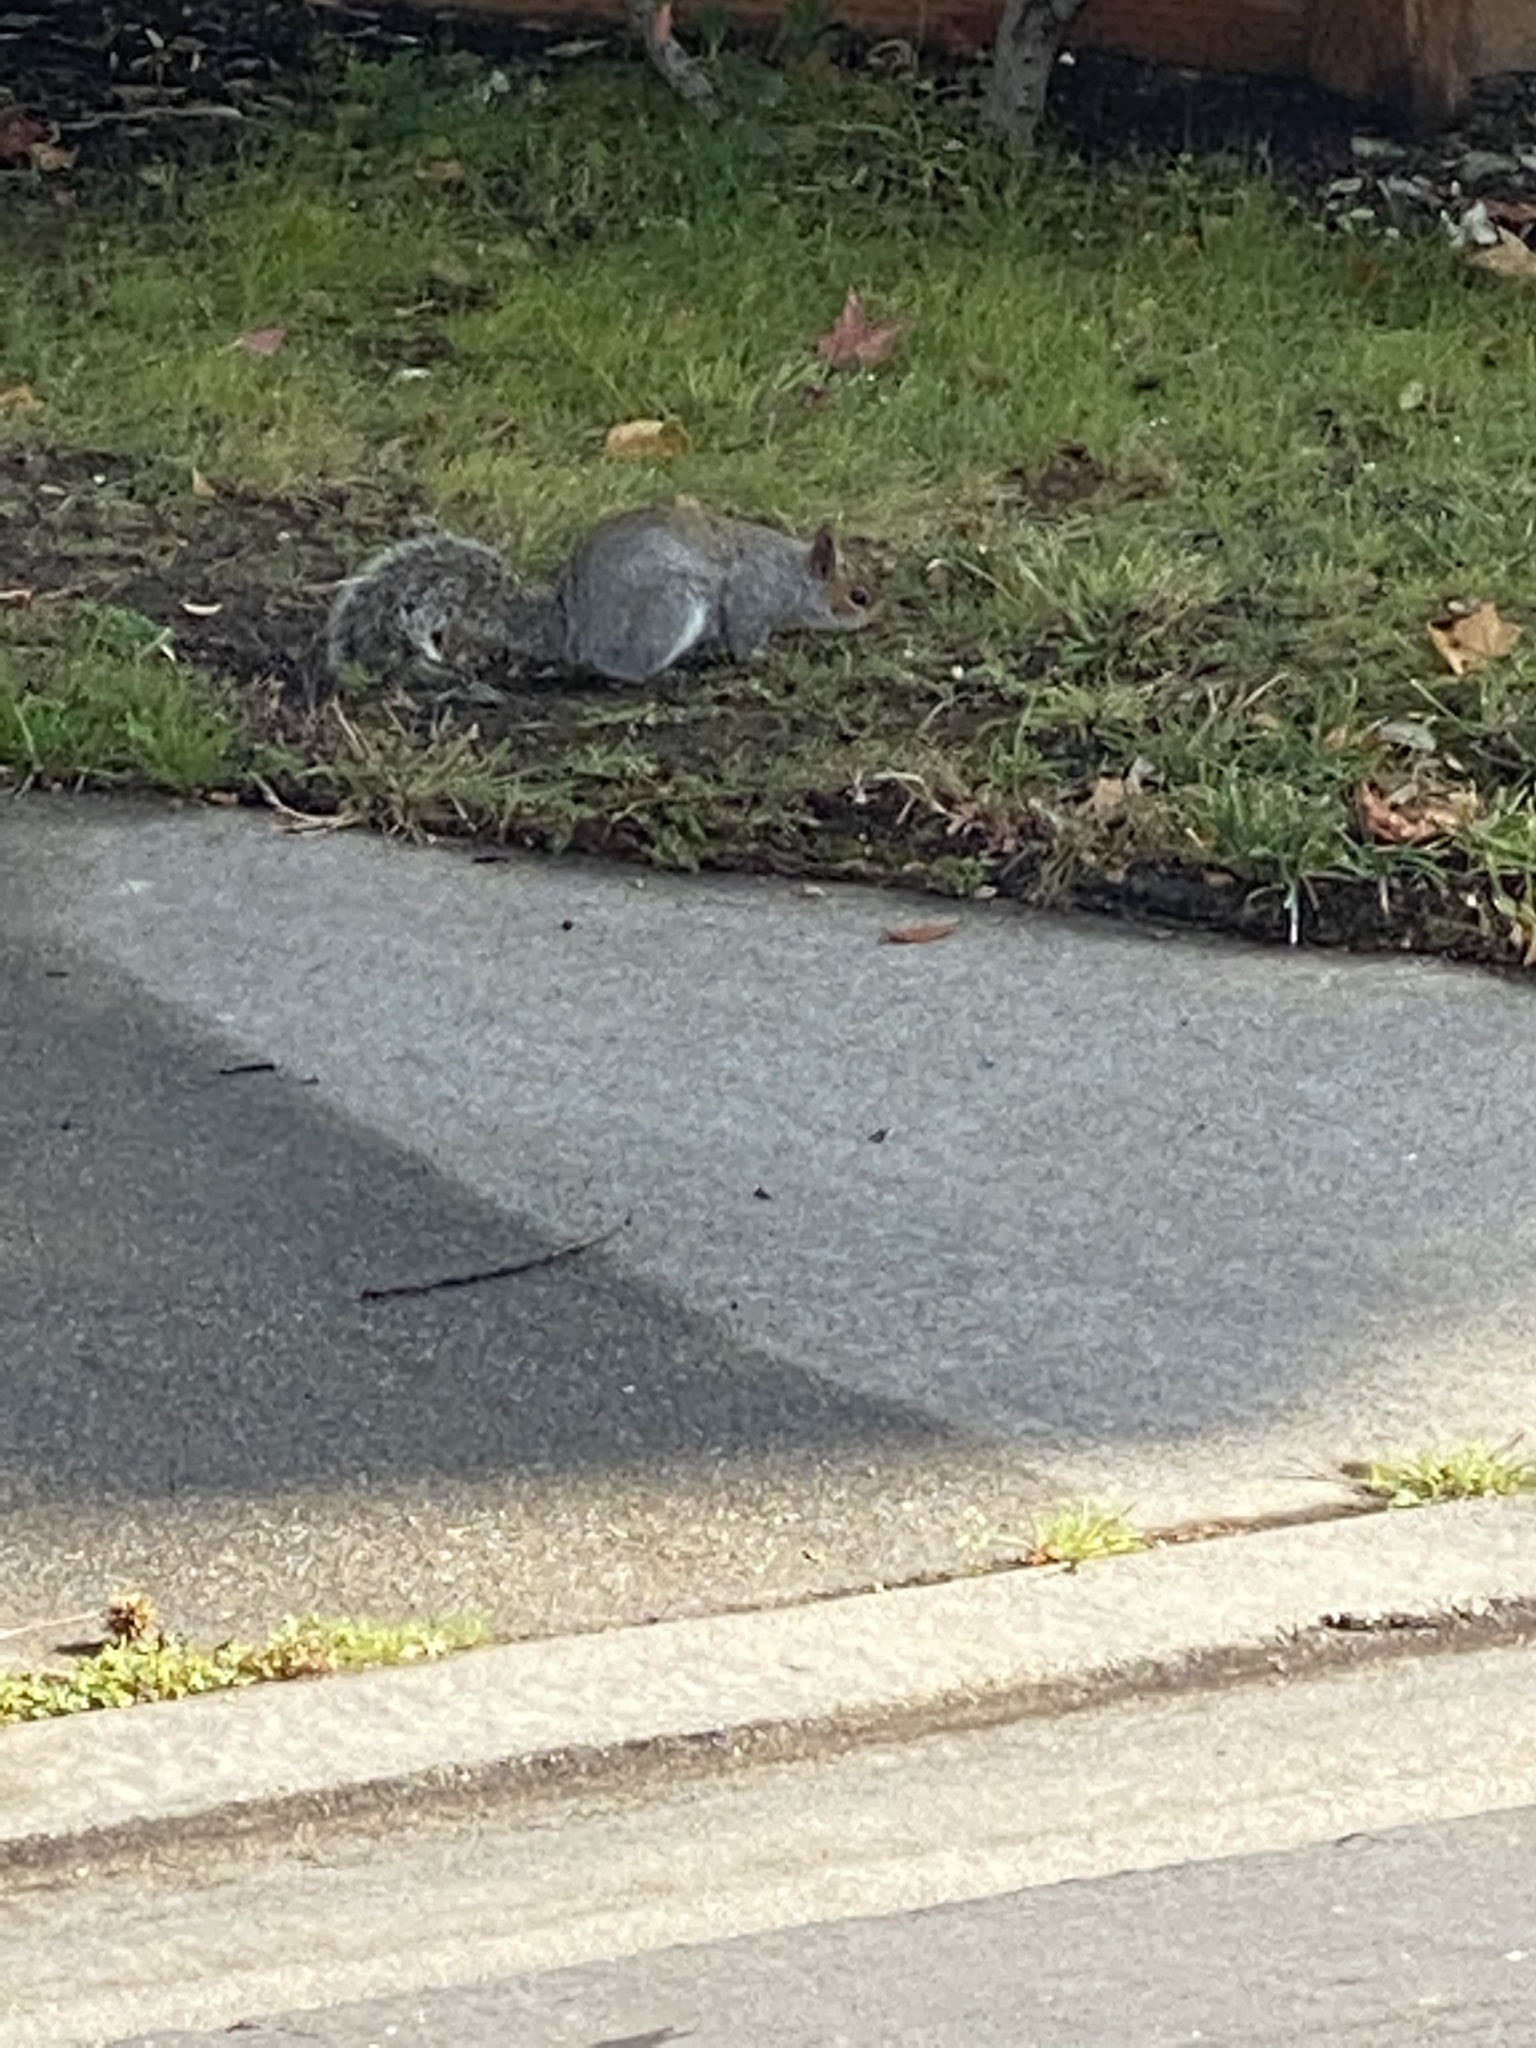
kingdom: Animalia
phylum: Chordata
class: Mammalia
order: Rodentia
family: Sciuridae
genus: Sciurus
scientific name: Sciurus carolinensis
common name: Eastern gray squirrel
